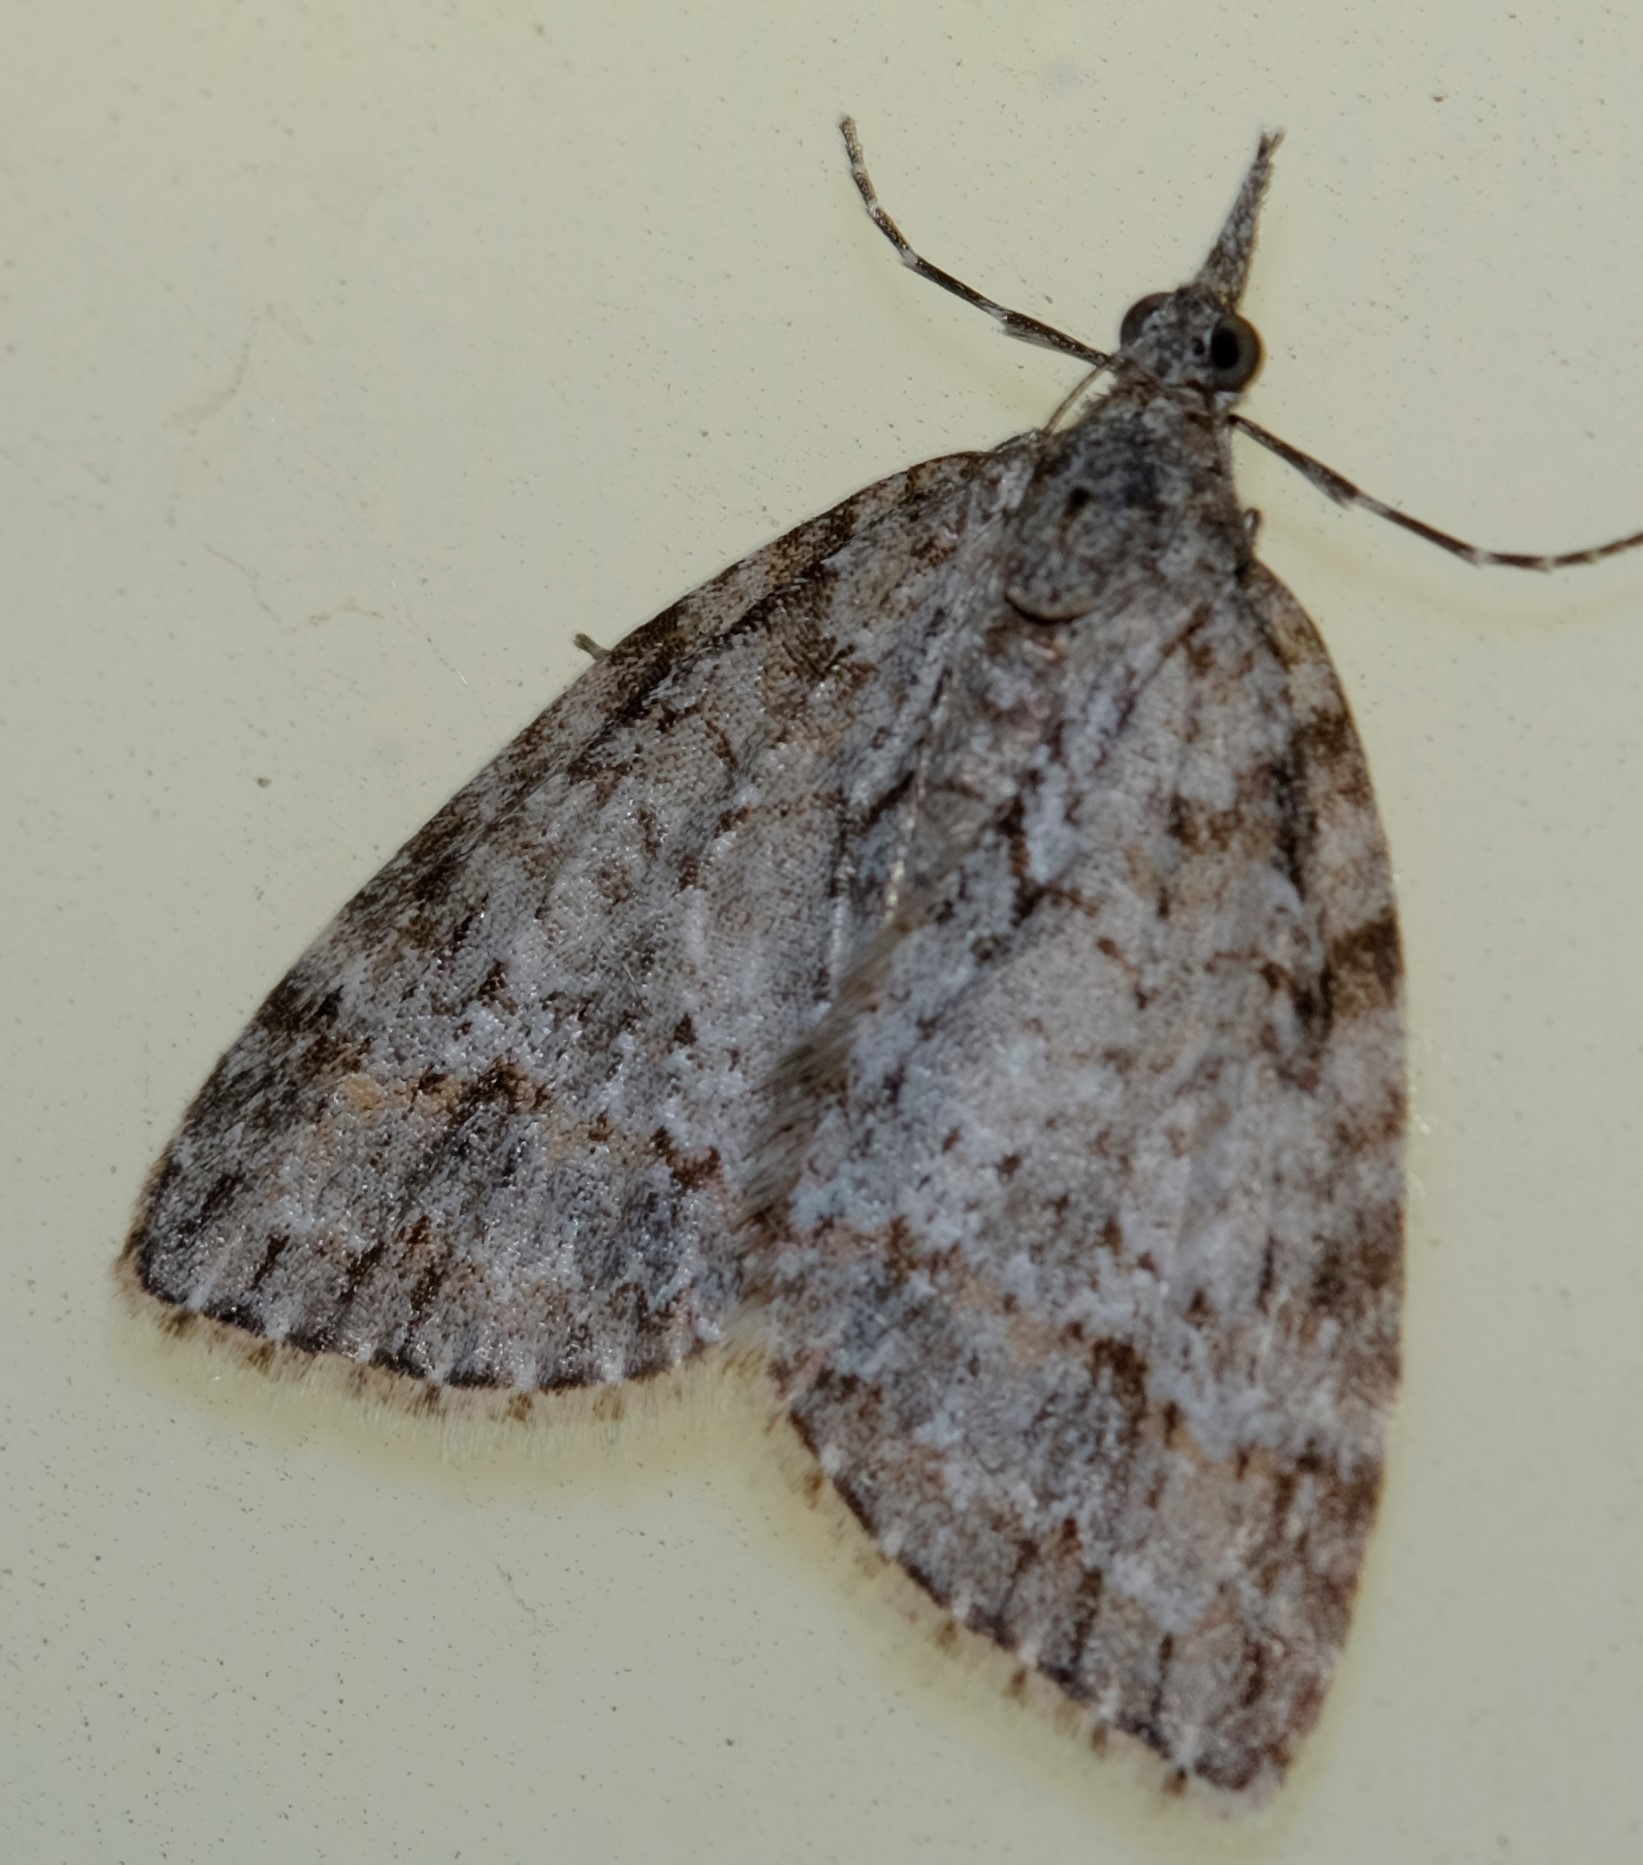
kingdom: Animalia
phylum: Arthropoda
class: Insecta
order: Lepidoptera
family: Geometridae
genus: Microdes
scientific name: Microdes villosata
